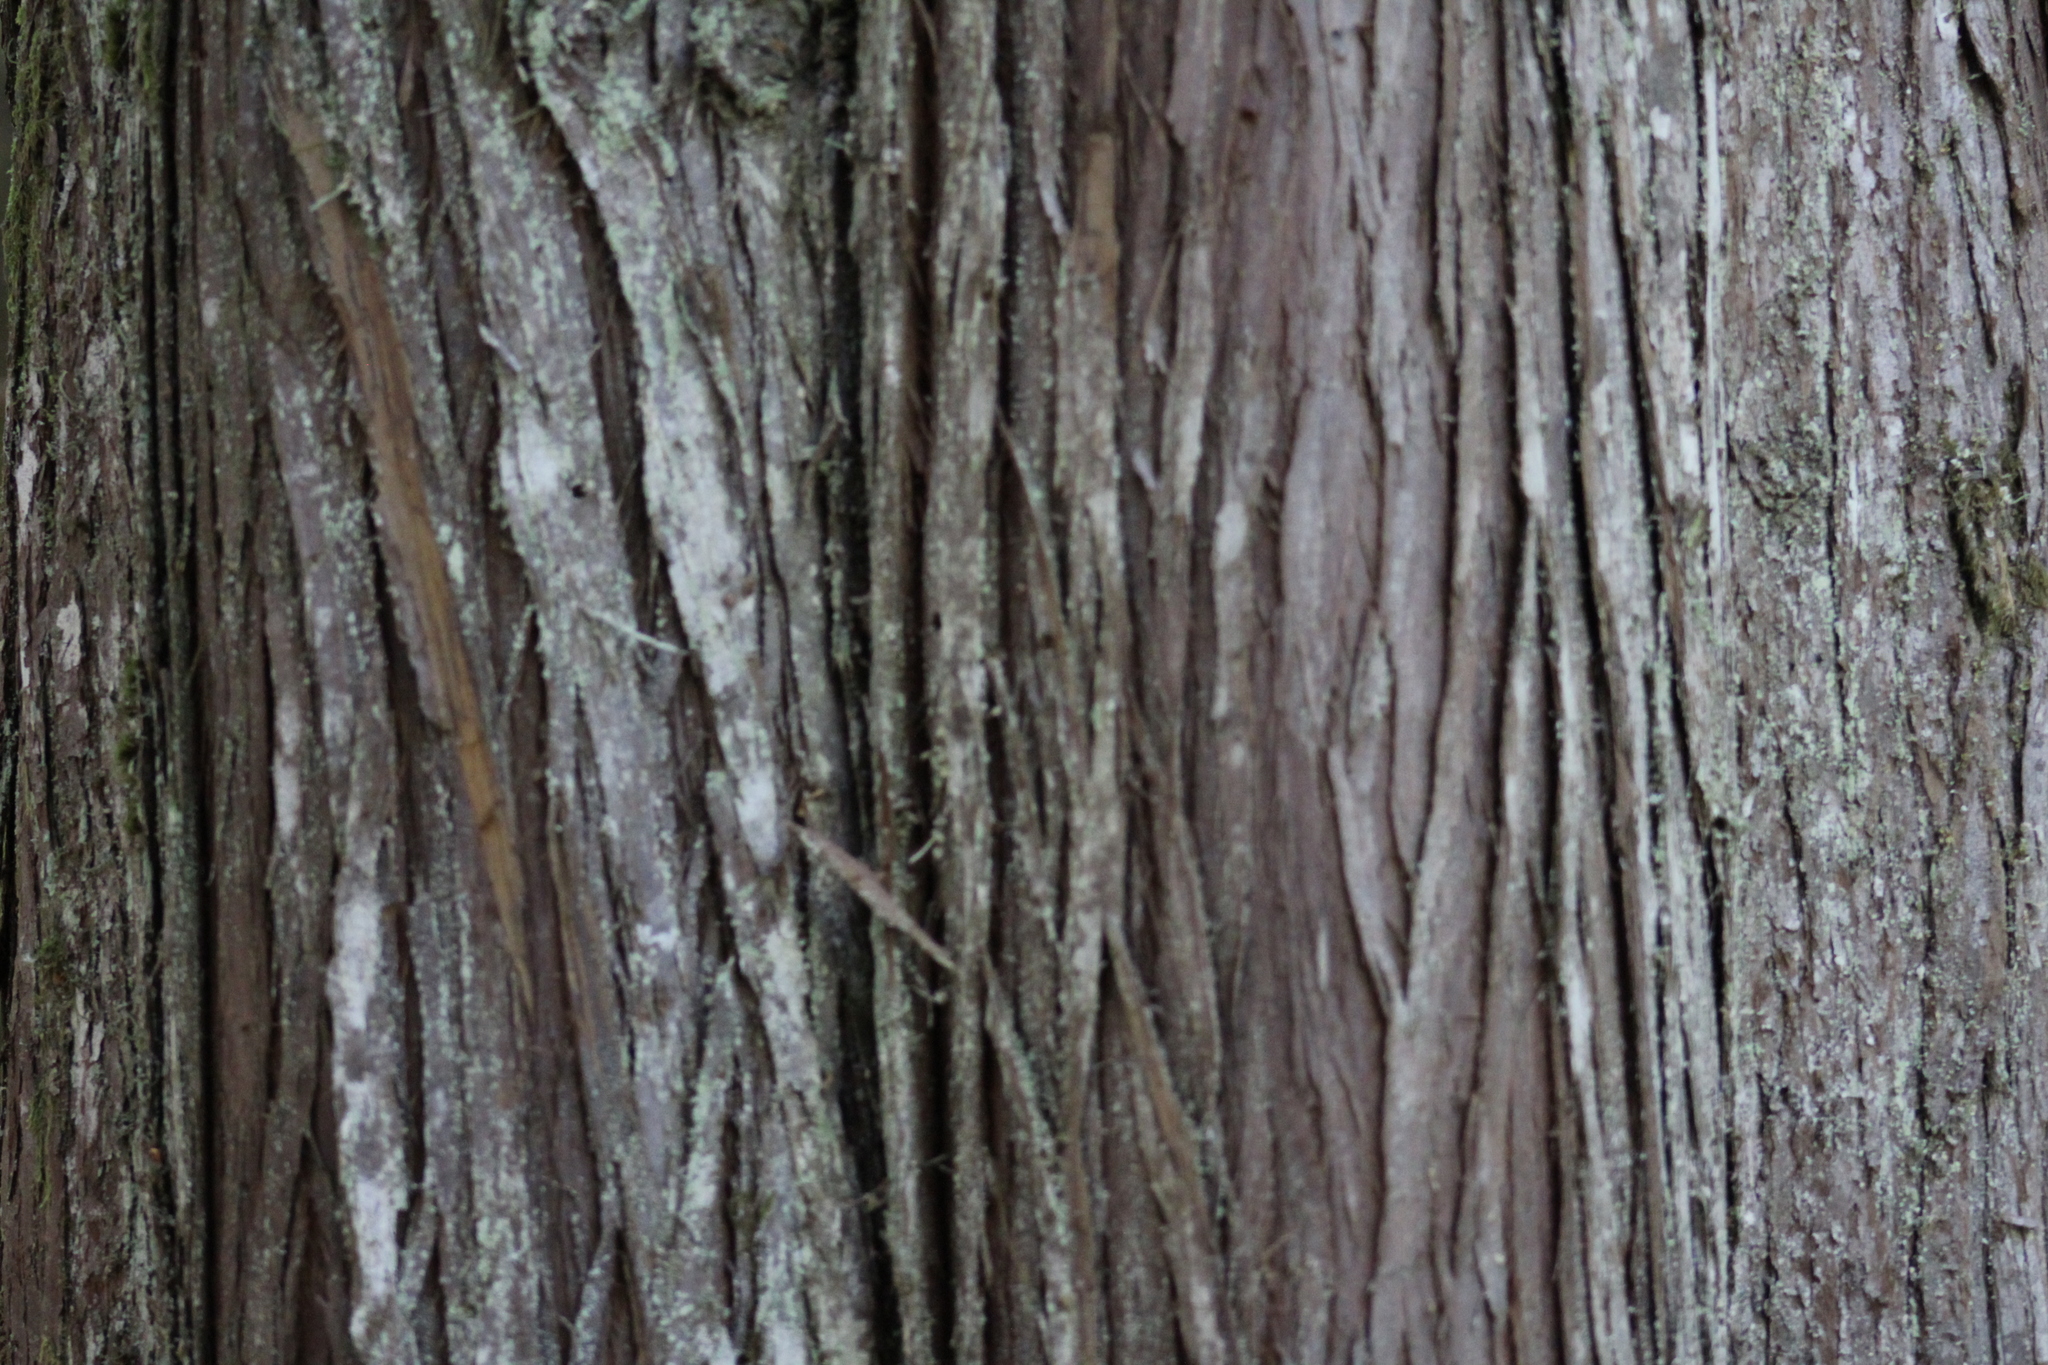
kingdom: Plantae
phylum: Tracheophyta
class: Pinopsida
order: Pinales
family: Cupressaceae
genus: Thuja
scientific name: Thuja plicata
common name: Western red-cedar
